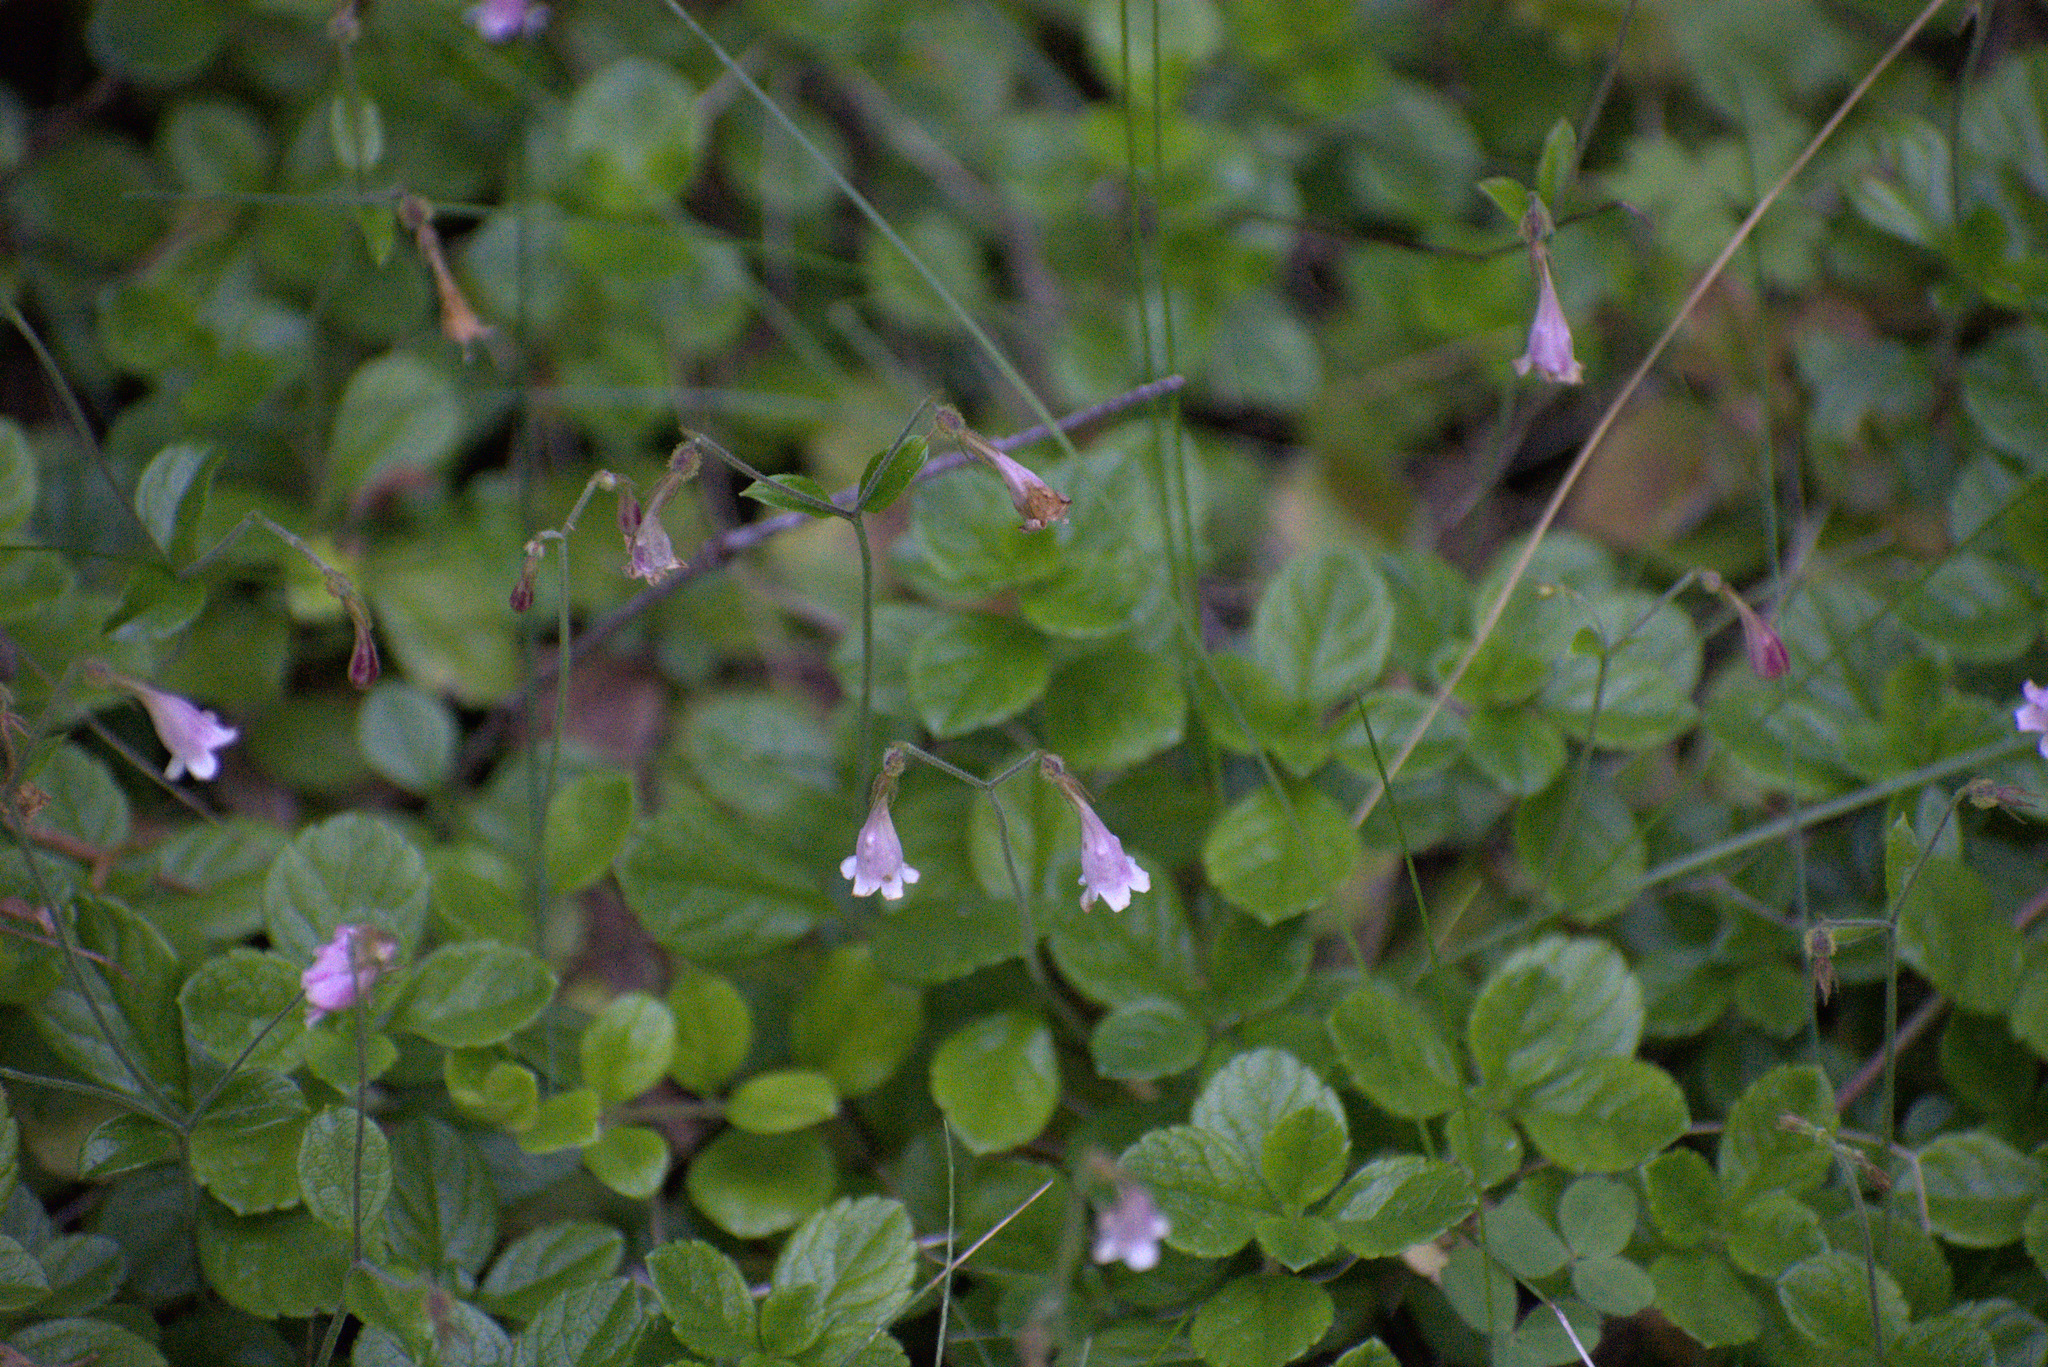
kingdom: Plantae
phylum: Tracheophyta
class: Magnoliopsida
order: Dipsacales
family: Caprifoliaceae
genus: Linnaea
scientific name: Linnaea borealis
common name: Twinflower
